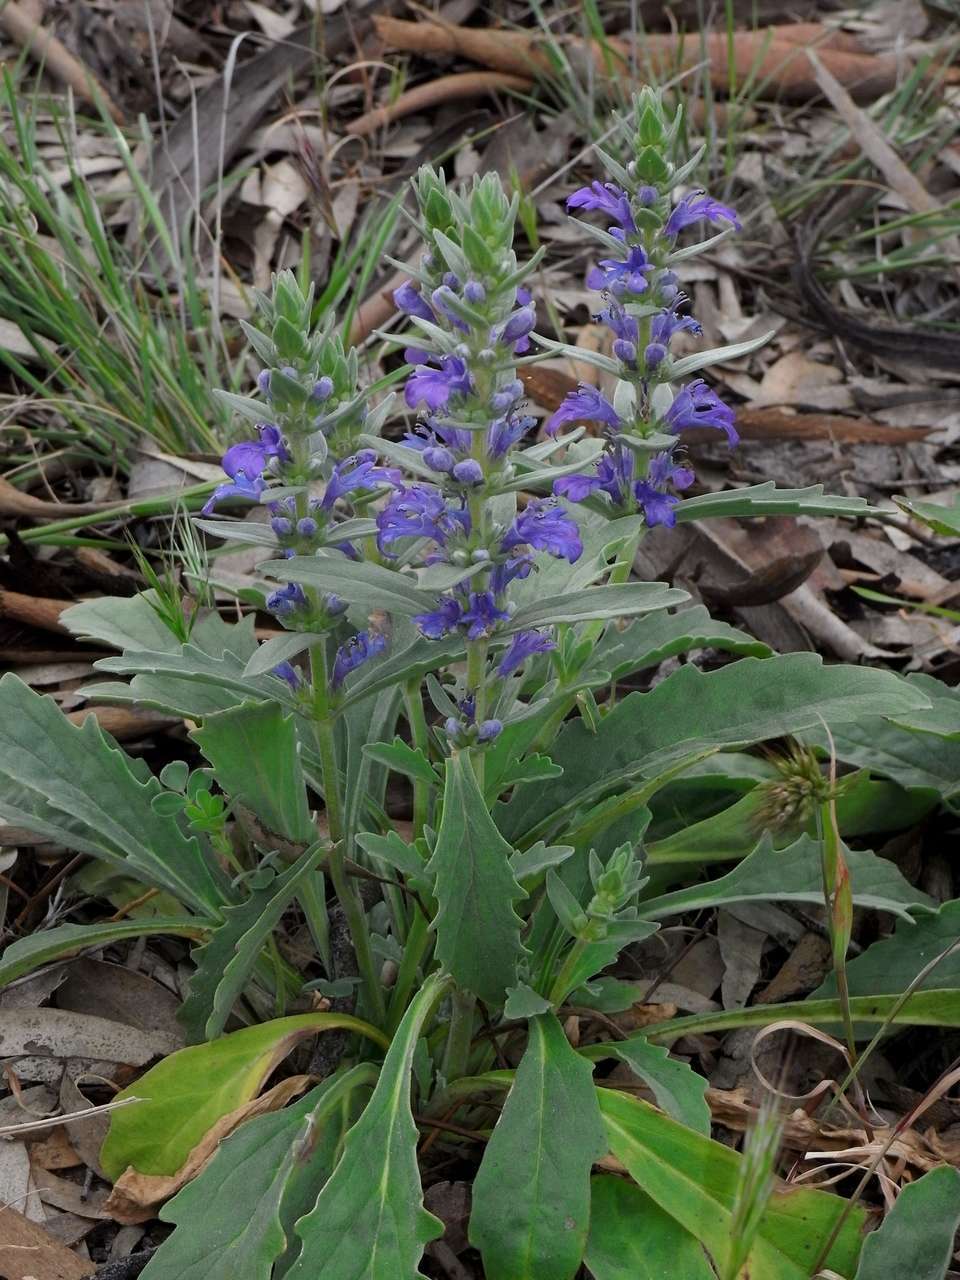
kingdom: Plantae
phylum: Tracheophyta
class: Magnoliopsida
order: Lamiales
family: Lamiaceae
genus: Ajuga
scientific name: Ajuga australis
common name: Australian bugle
